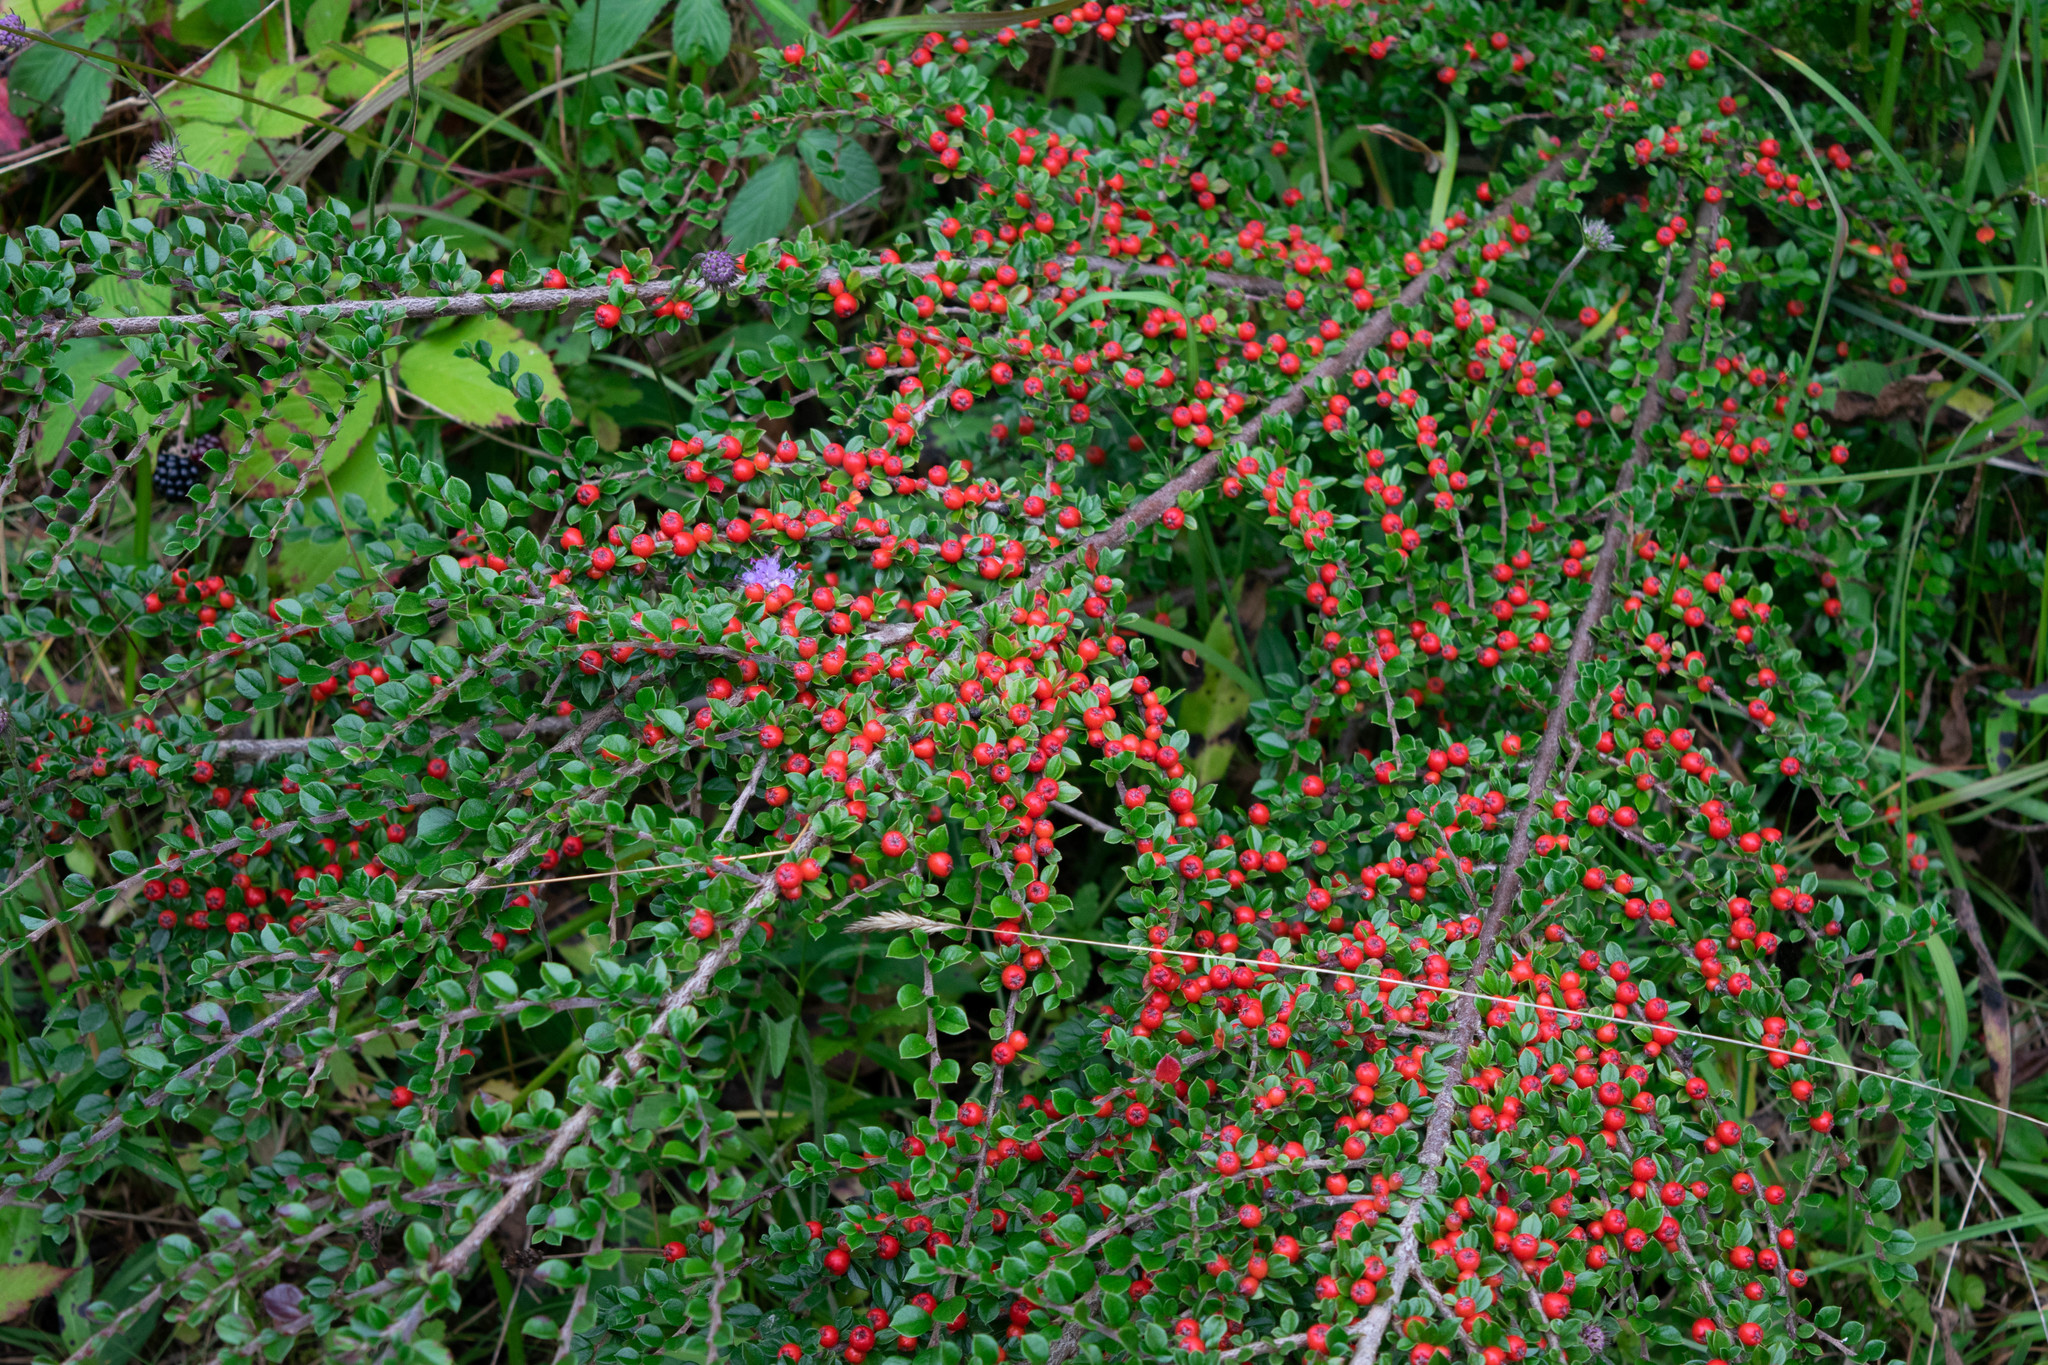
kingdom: Plantae
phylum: Tracheophyta
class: Magnoliopsida
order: Rosales
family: Rosaceae
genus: Cotoneaster
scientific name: Cotoneaster horizontalis
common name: Wall cotoneaster
